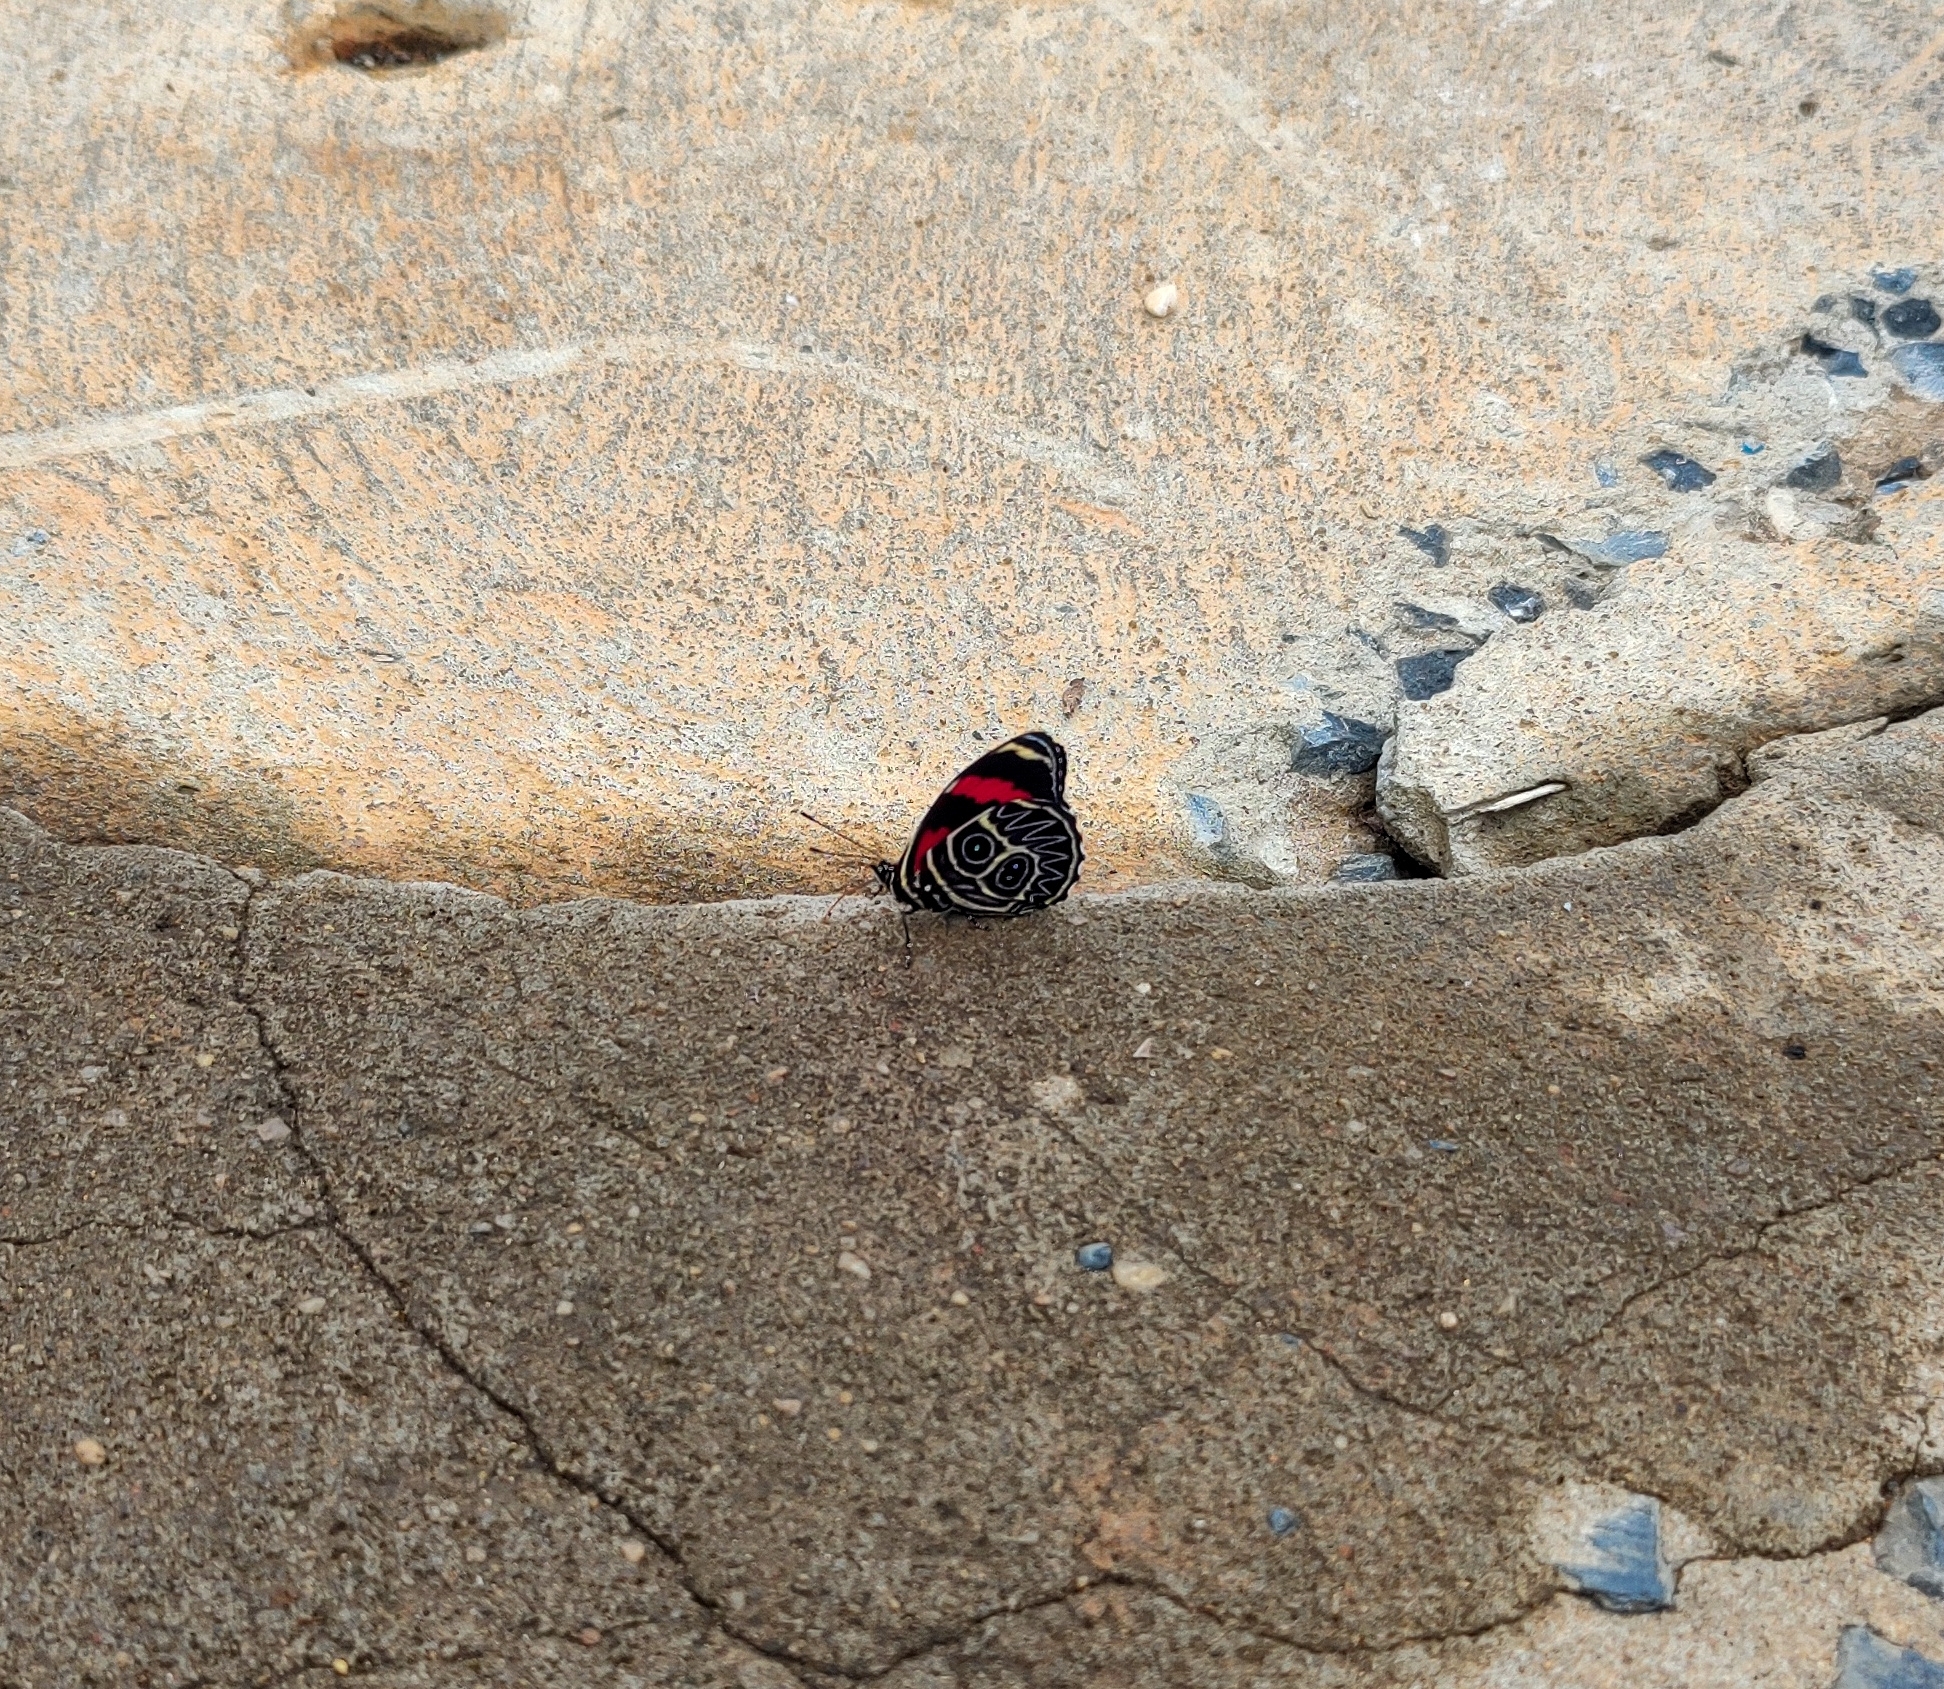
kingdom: Animalia
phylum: Arthropoda
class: Insecta
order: Lepidoptera
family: Nymphalidae
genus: Catagramma
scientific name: Catagramma Callicore sorana
